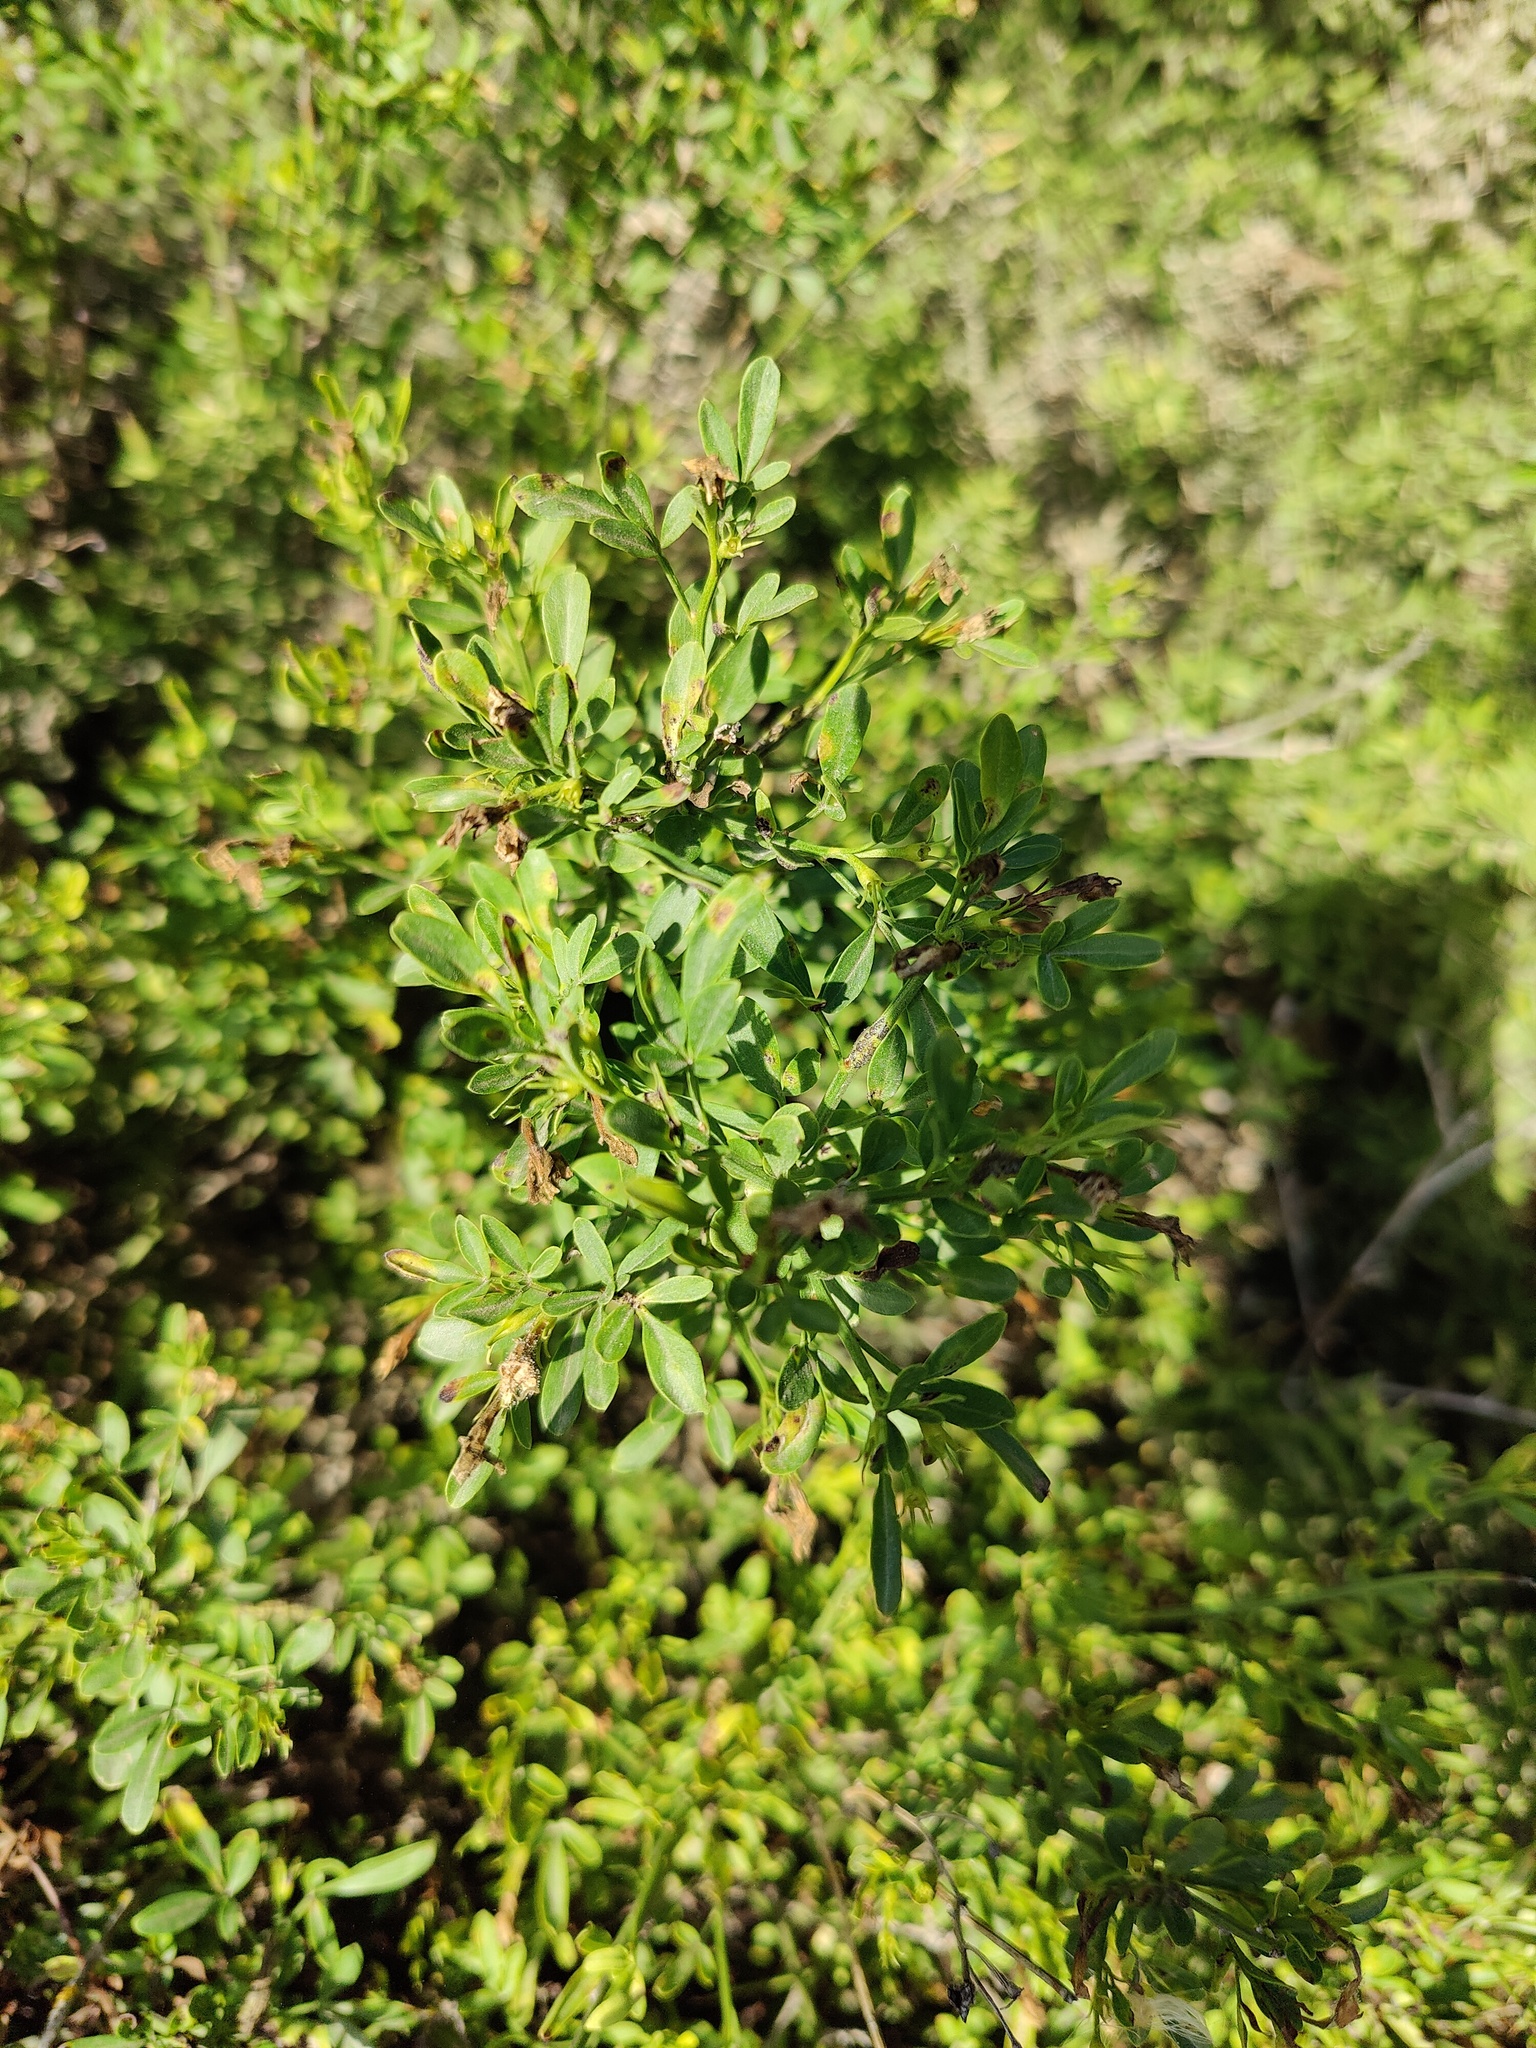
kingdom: Plantae
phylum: Tracheophyta
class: Magnoliopsida
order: Lamiales
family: Oleaceae
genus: Chrysojasminum
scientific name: Chrysojasminum fruticans
